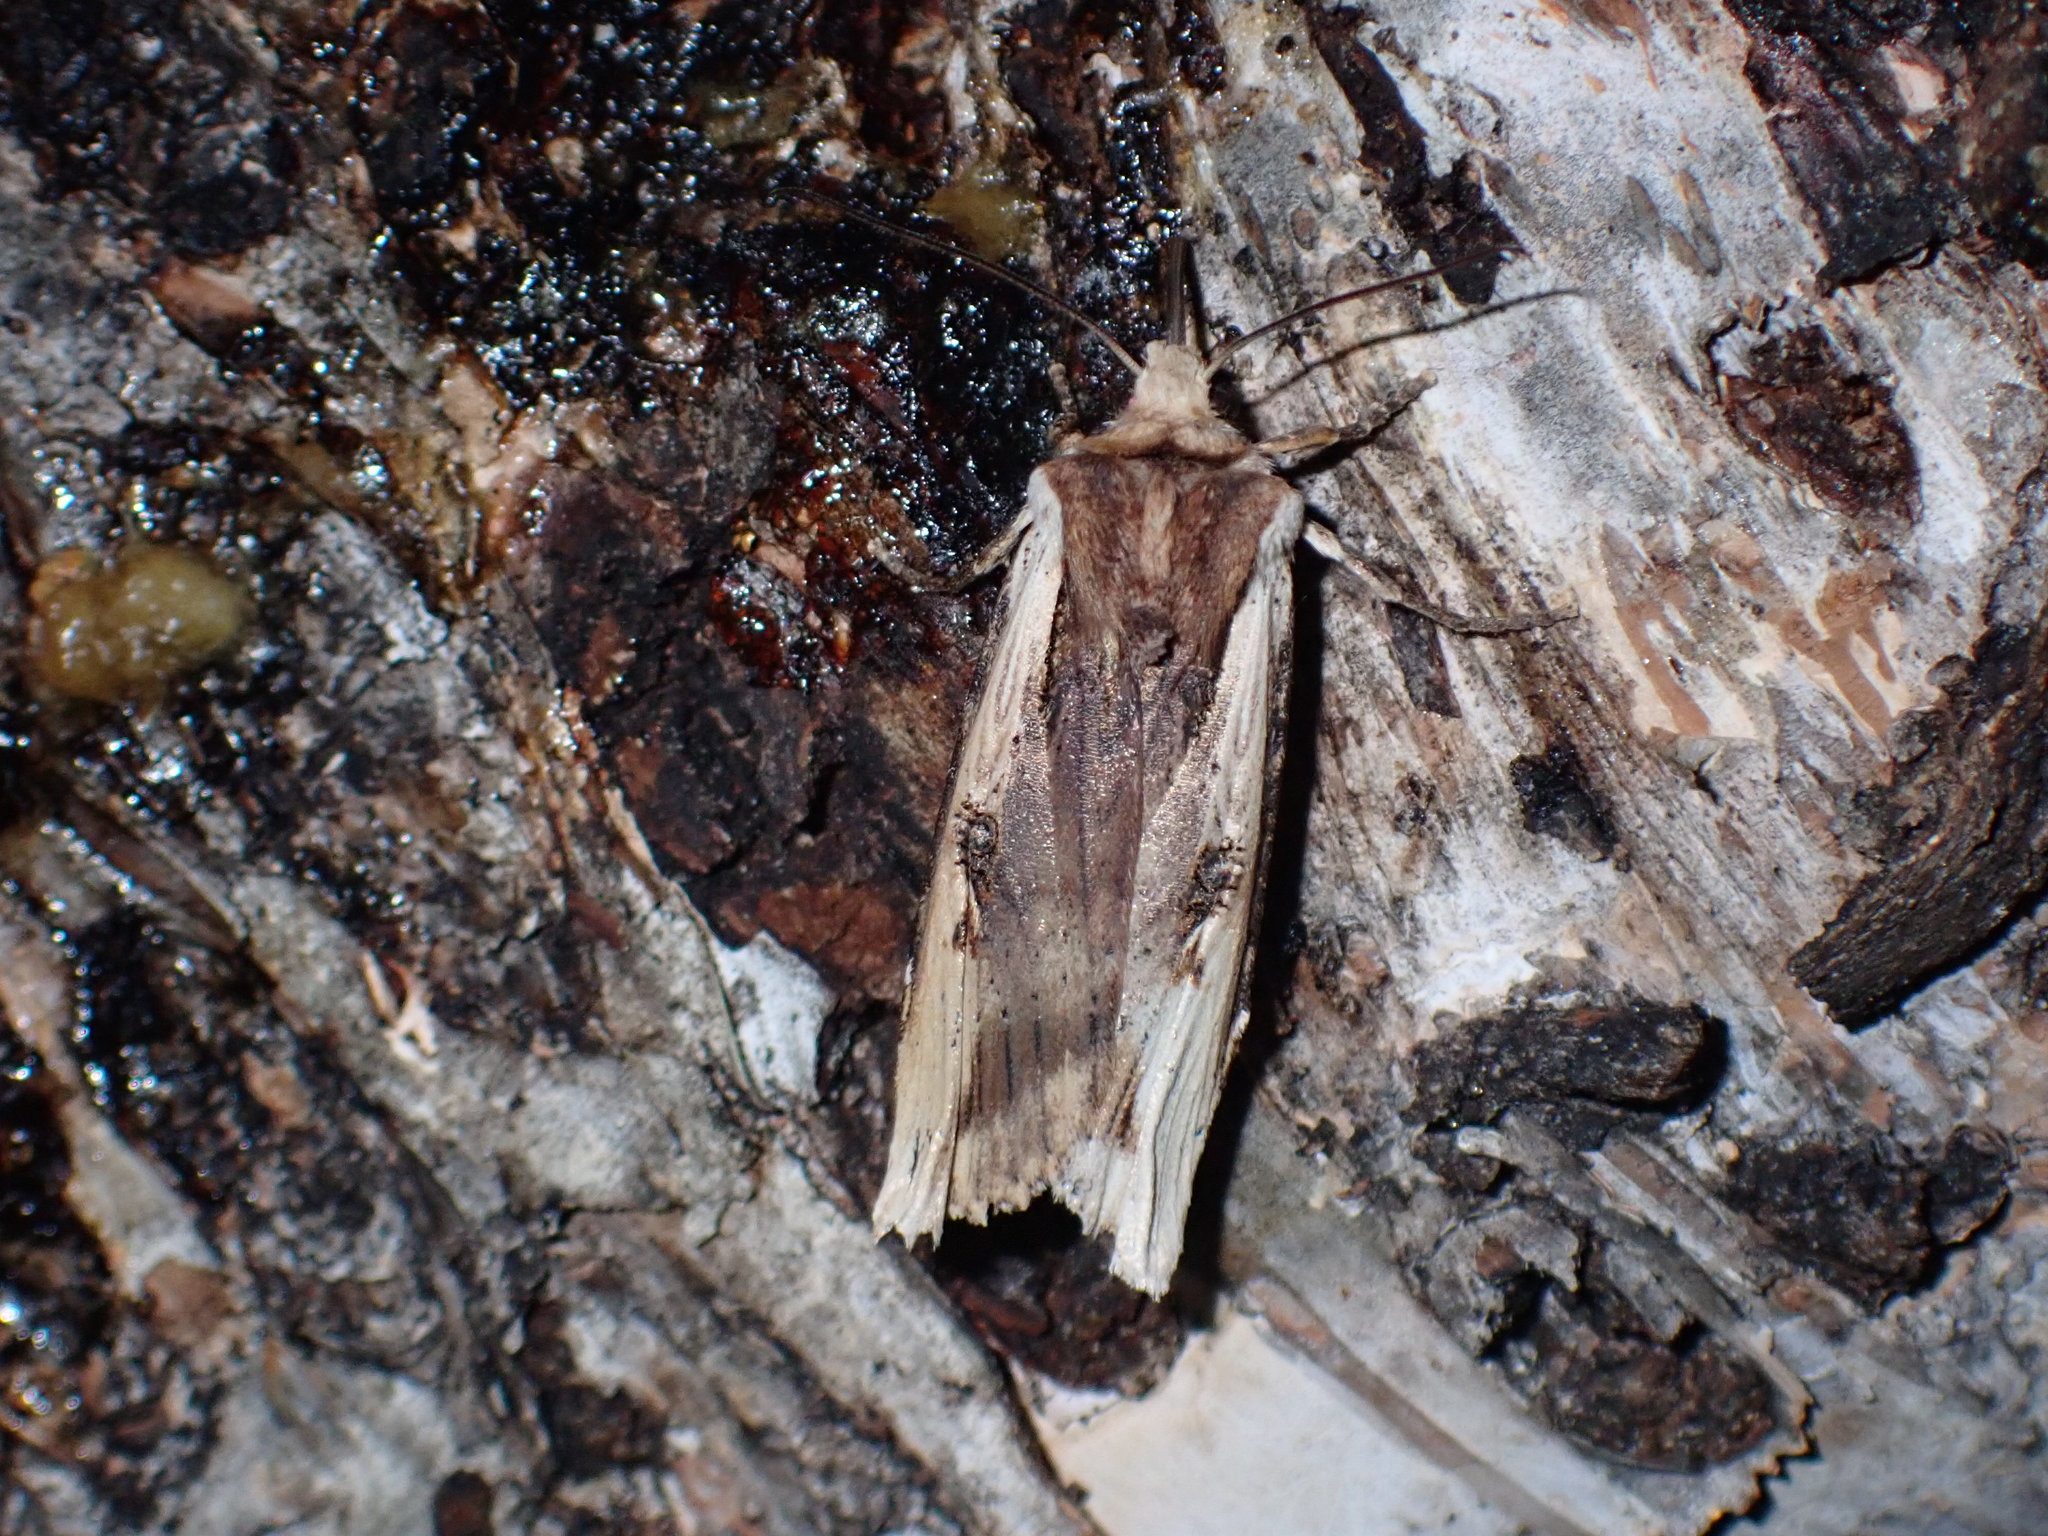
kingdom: Animalia
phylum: Arthropoda
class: Insecta
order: Lepidoptera
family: Noctuidae
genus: Xylena
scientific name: Xylena curvimacula
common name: Dot-and-dash swordgrass moth
